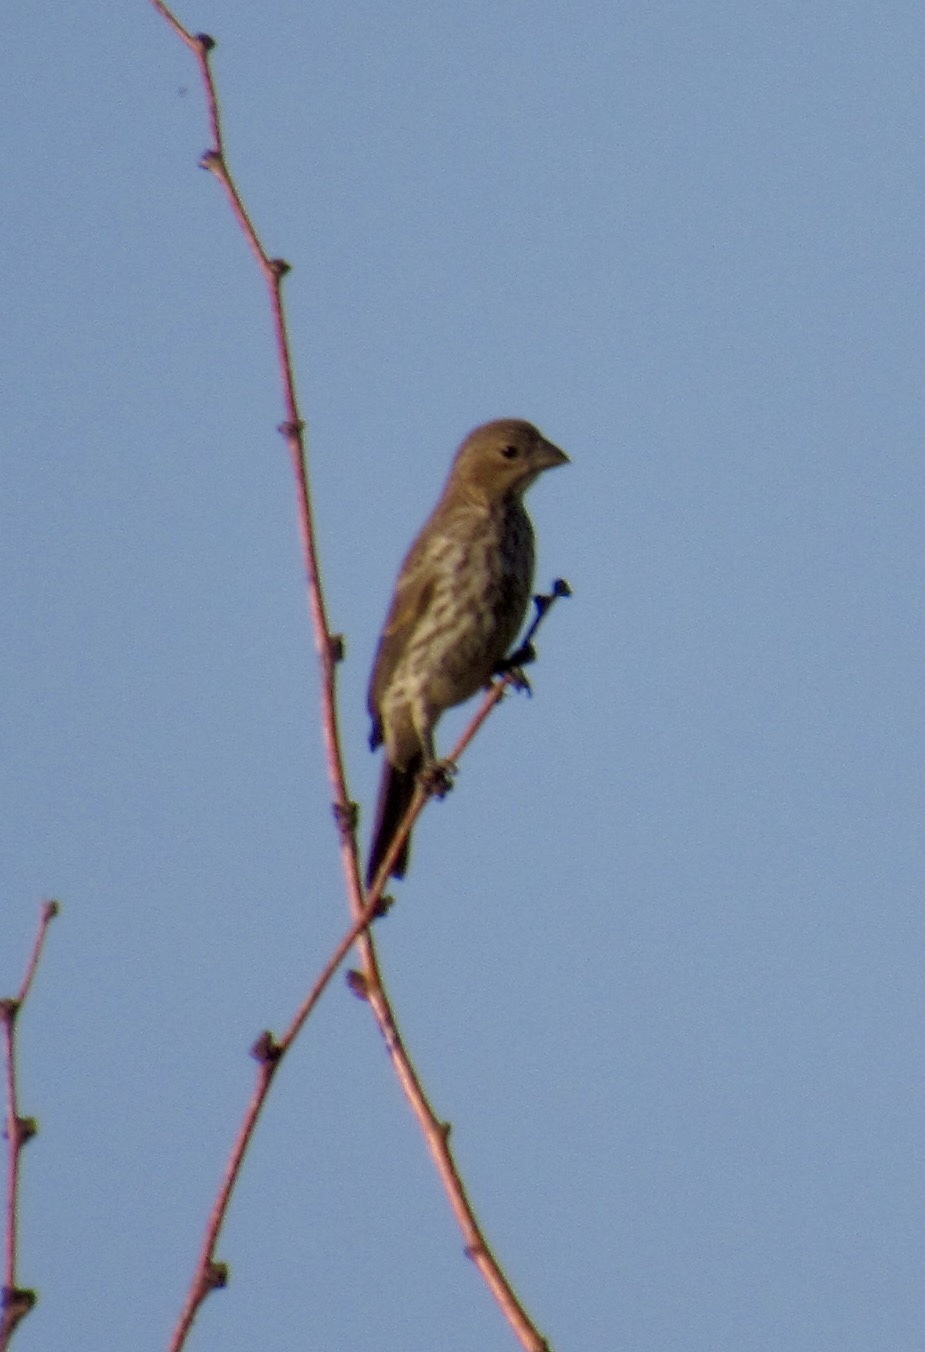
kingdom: Animalia
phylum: Chordata
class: Aves
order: Passeriformes
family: Fringillidae
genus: Haemorhous
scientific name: Haemorhous mexicanus
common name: House finch
